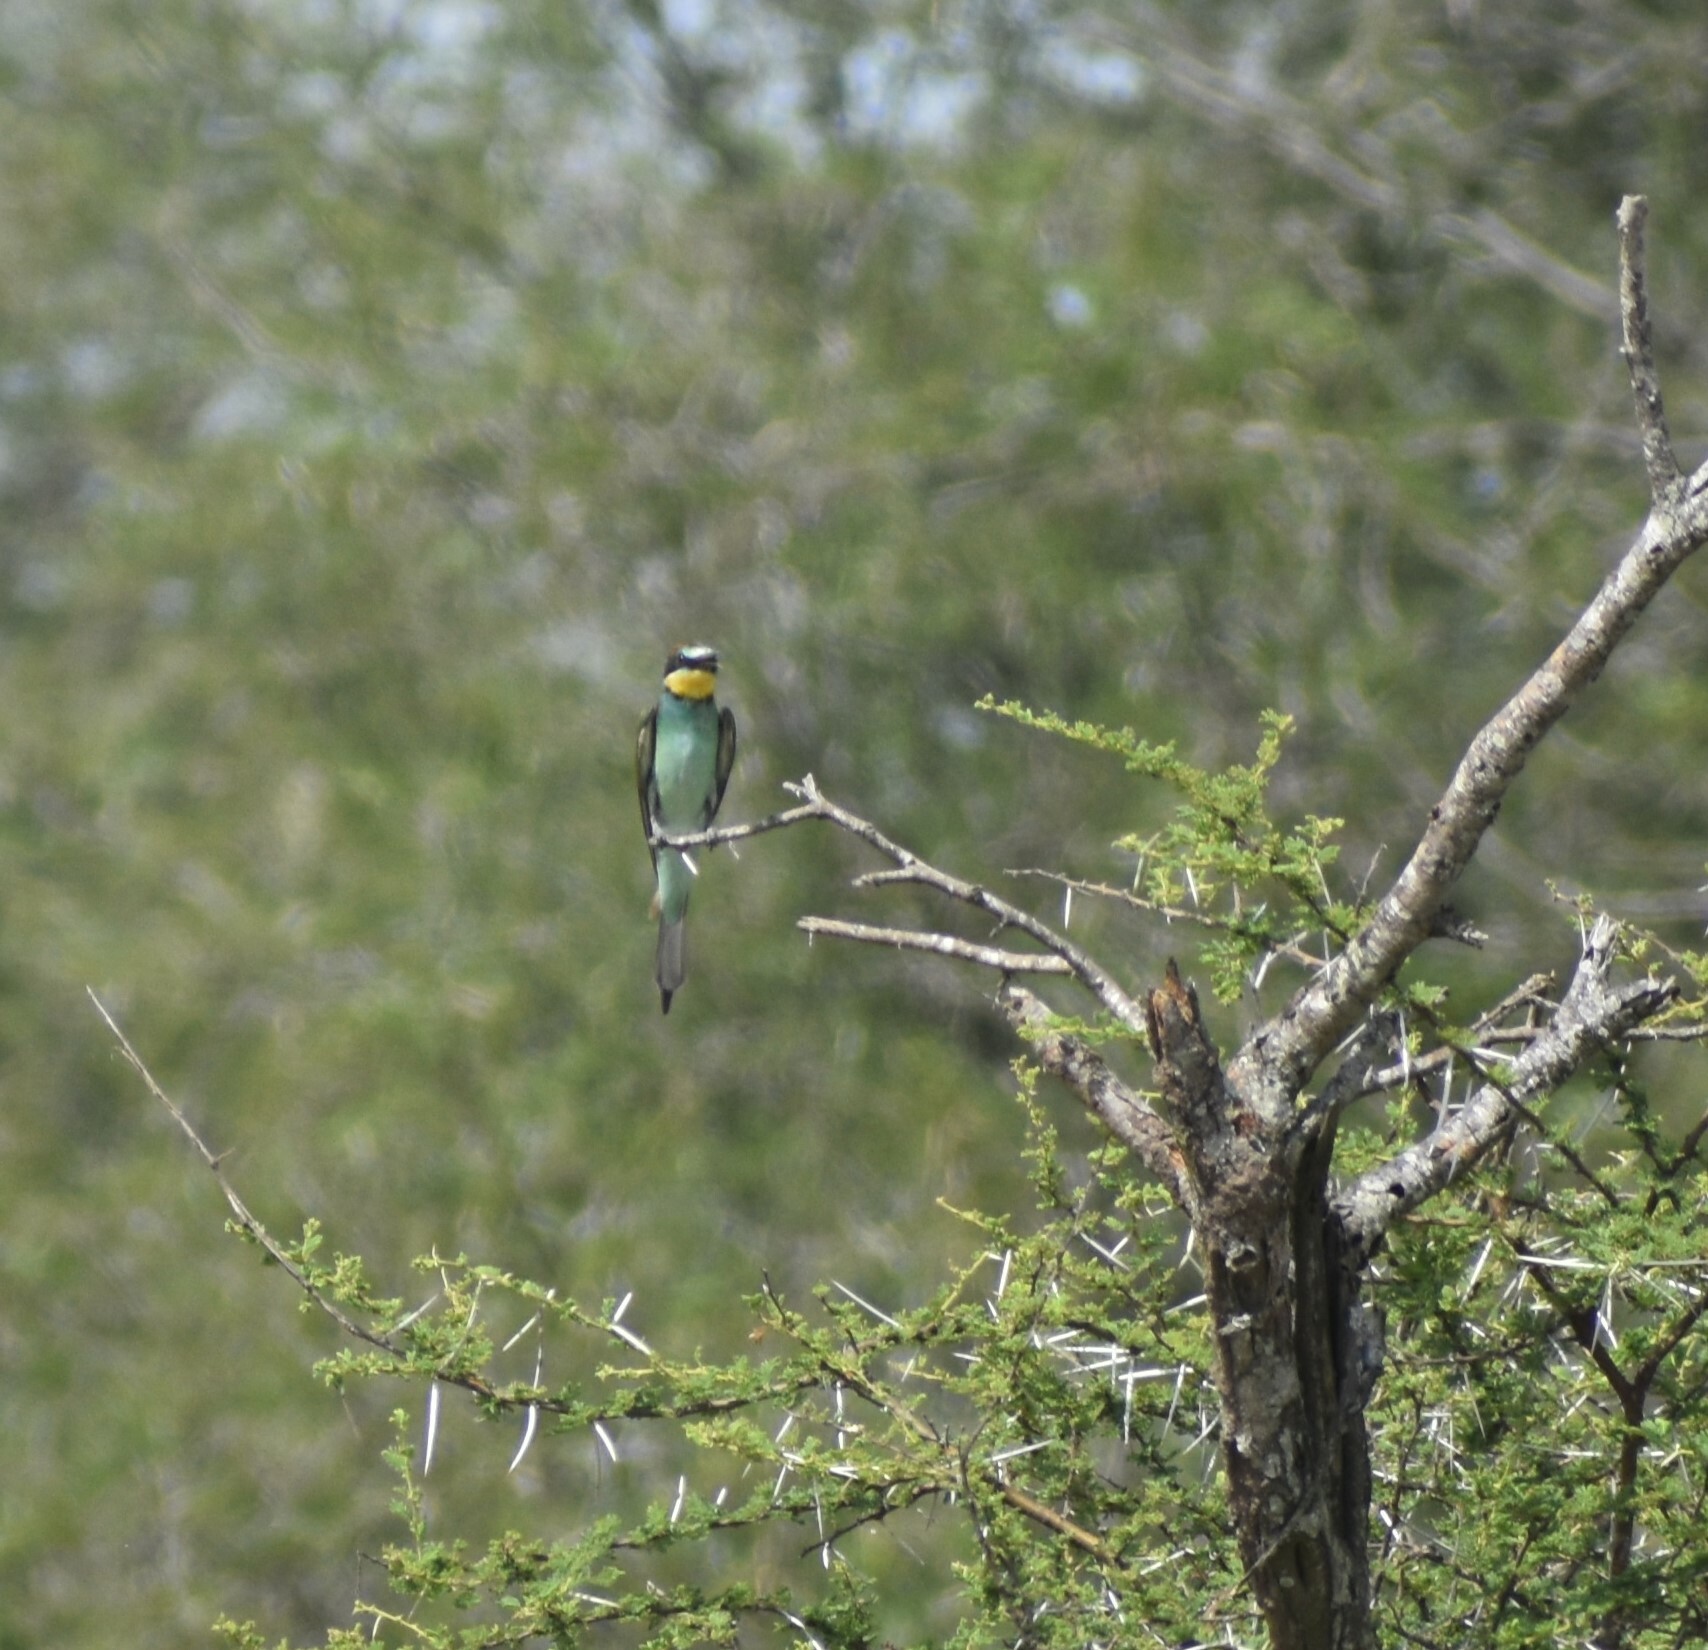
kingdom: Animalia
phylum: Chordata
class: Aves
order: Coraciiformes
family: Meropidae
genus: Merops
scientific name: Merops apiaster
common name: European bee-eater
